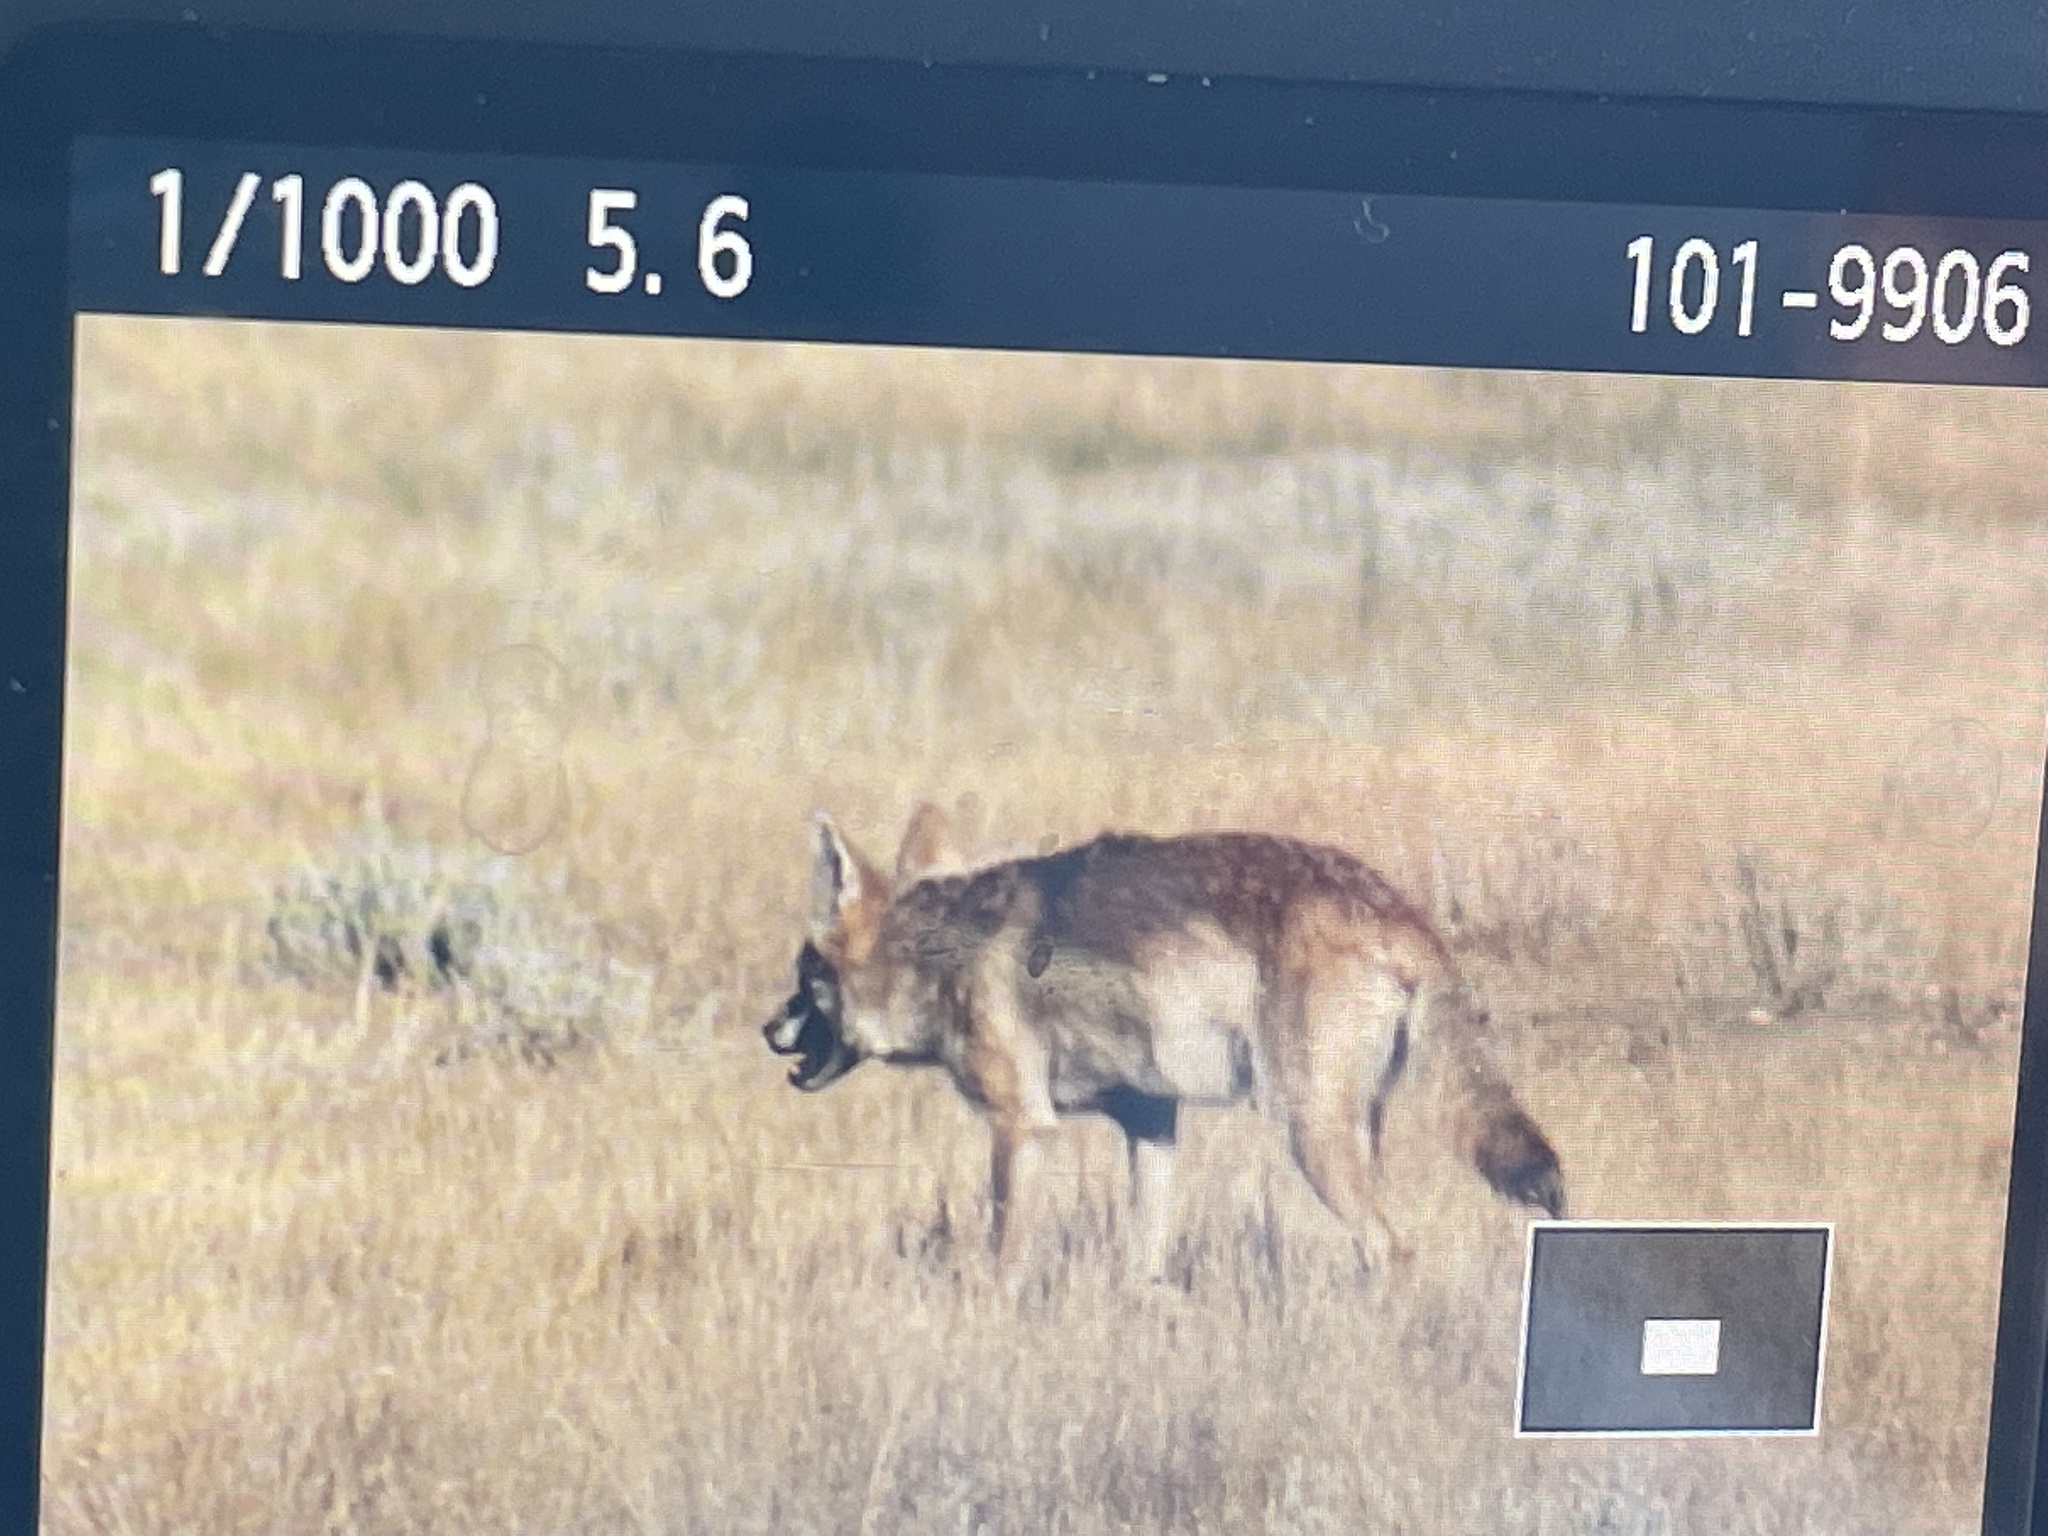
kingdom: Animalia
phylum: Chordata
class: Mammalia
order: Carnivora
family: Canidae
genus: Canis
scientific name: Canis latrans
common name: Coyote
